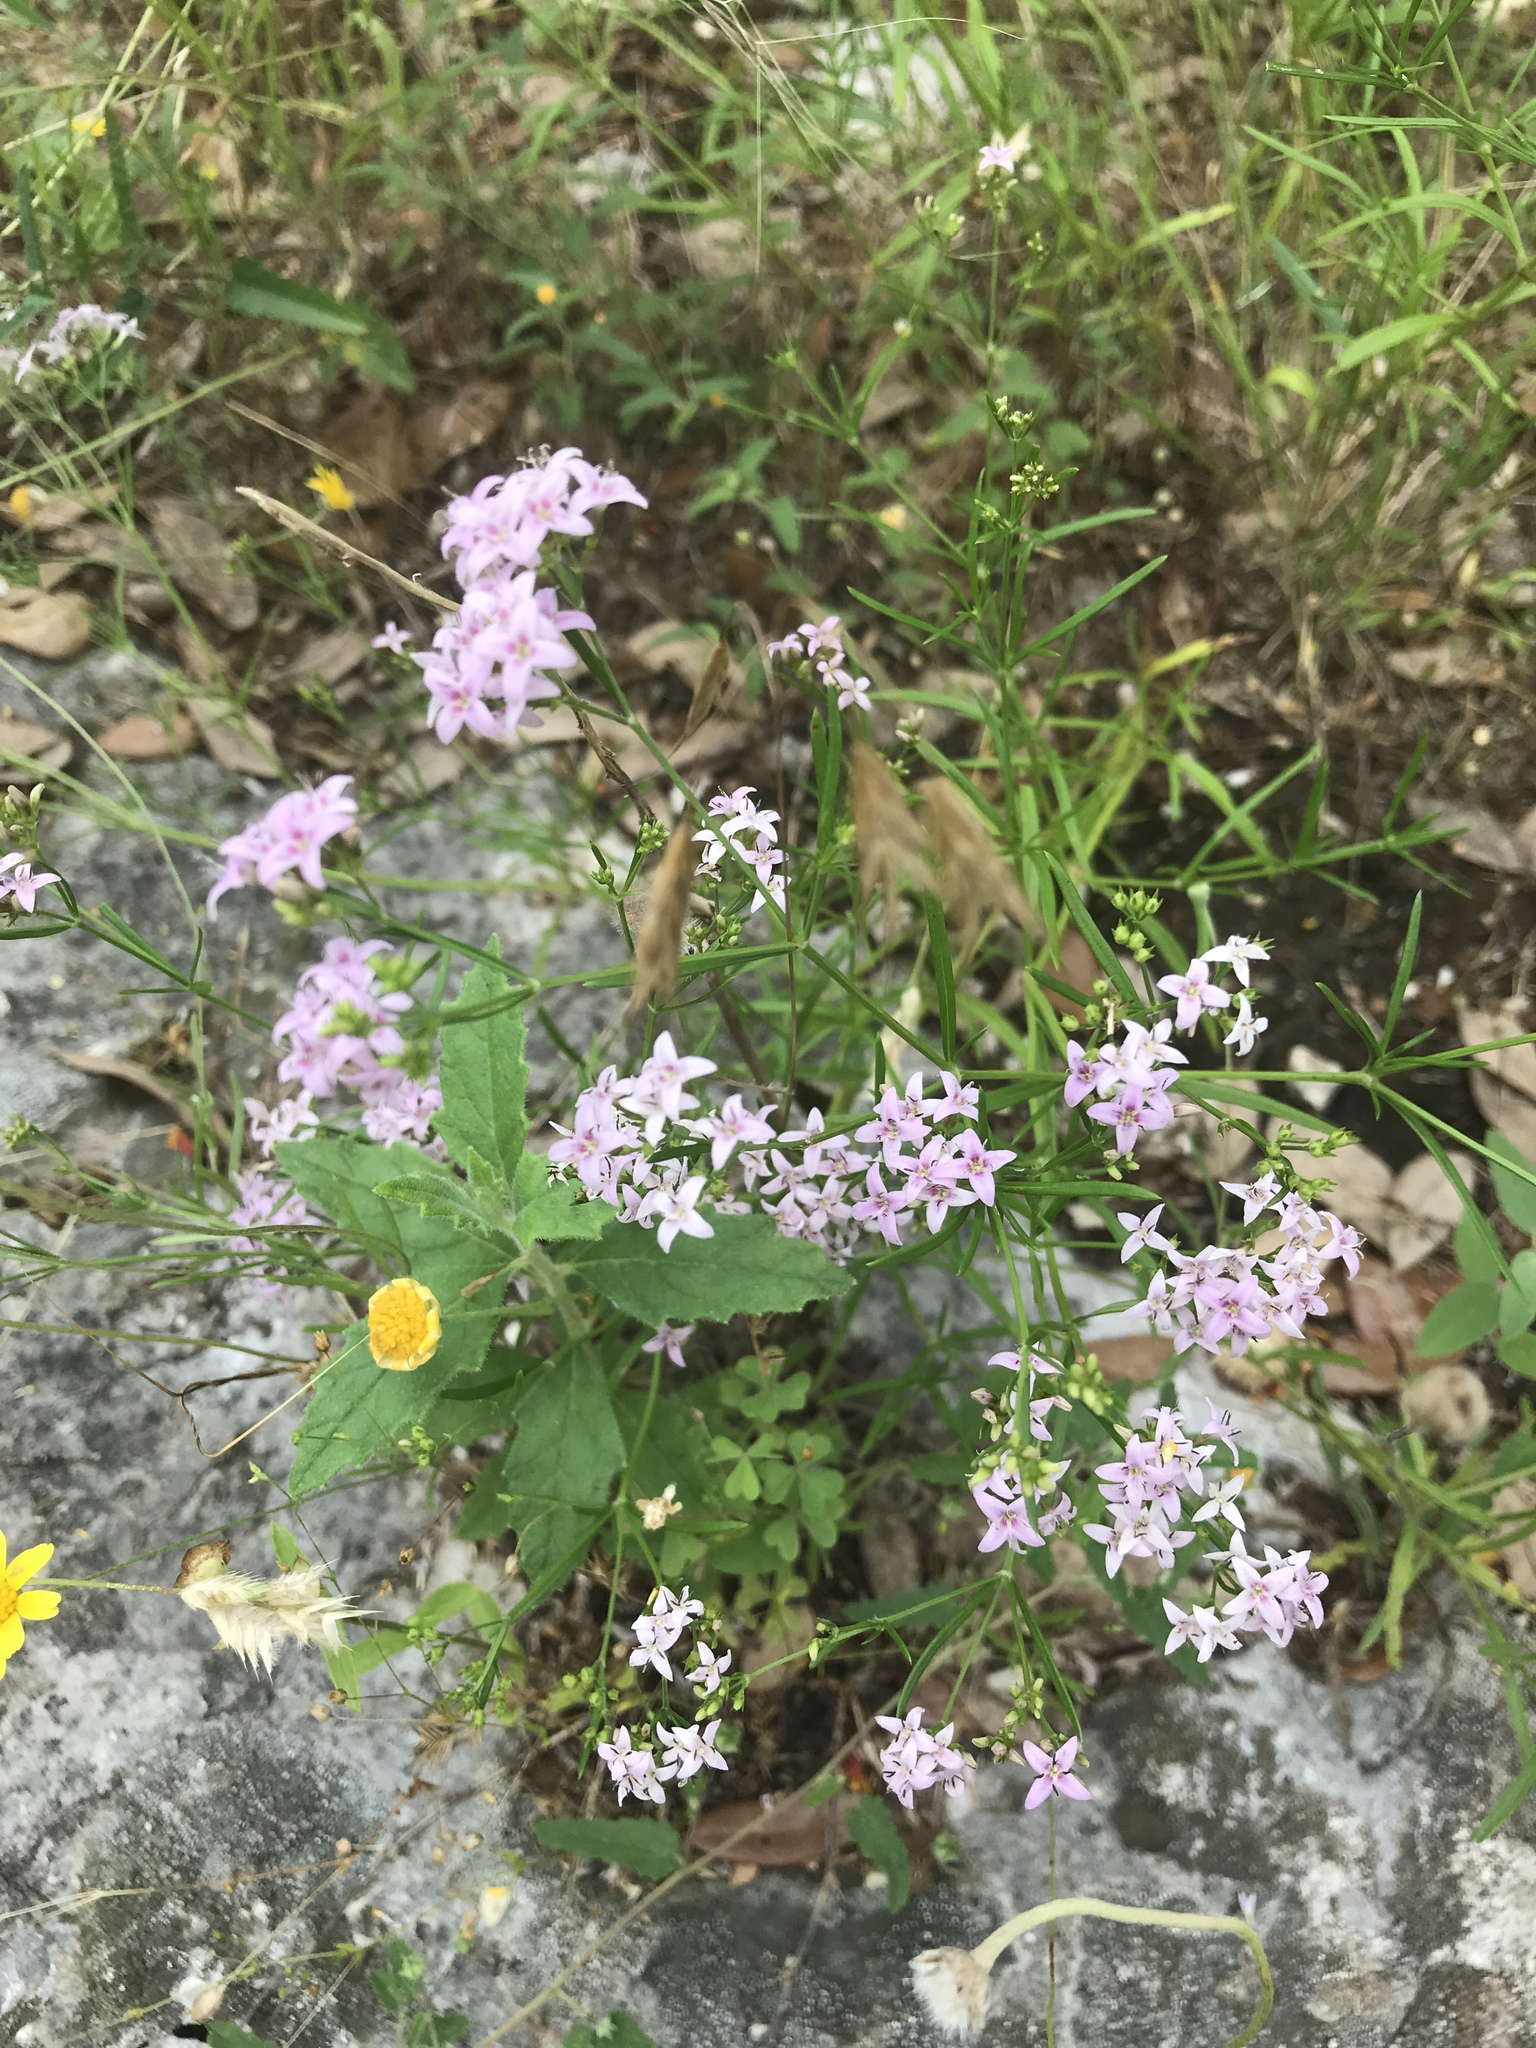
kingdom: Plantae
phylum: Tracheophyta
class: Magnoliopsida
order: Gentianales
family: Rubiaceae
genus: Stenaria
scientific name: Stenaria nigricans
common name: Diamondflowers
